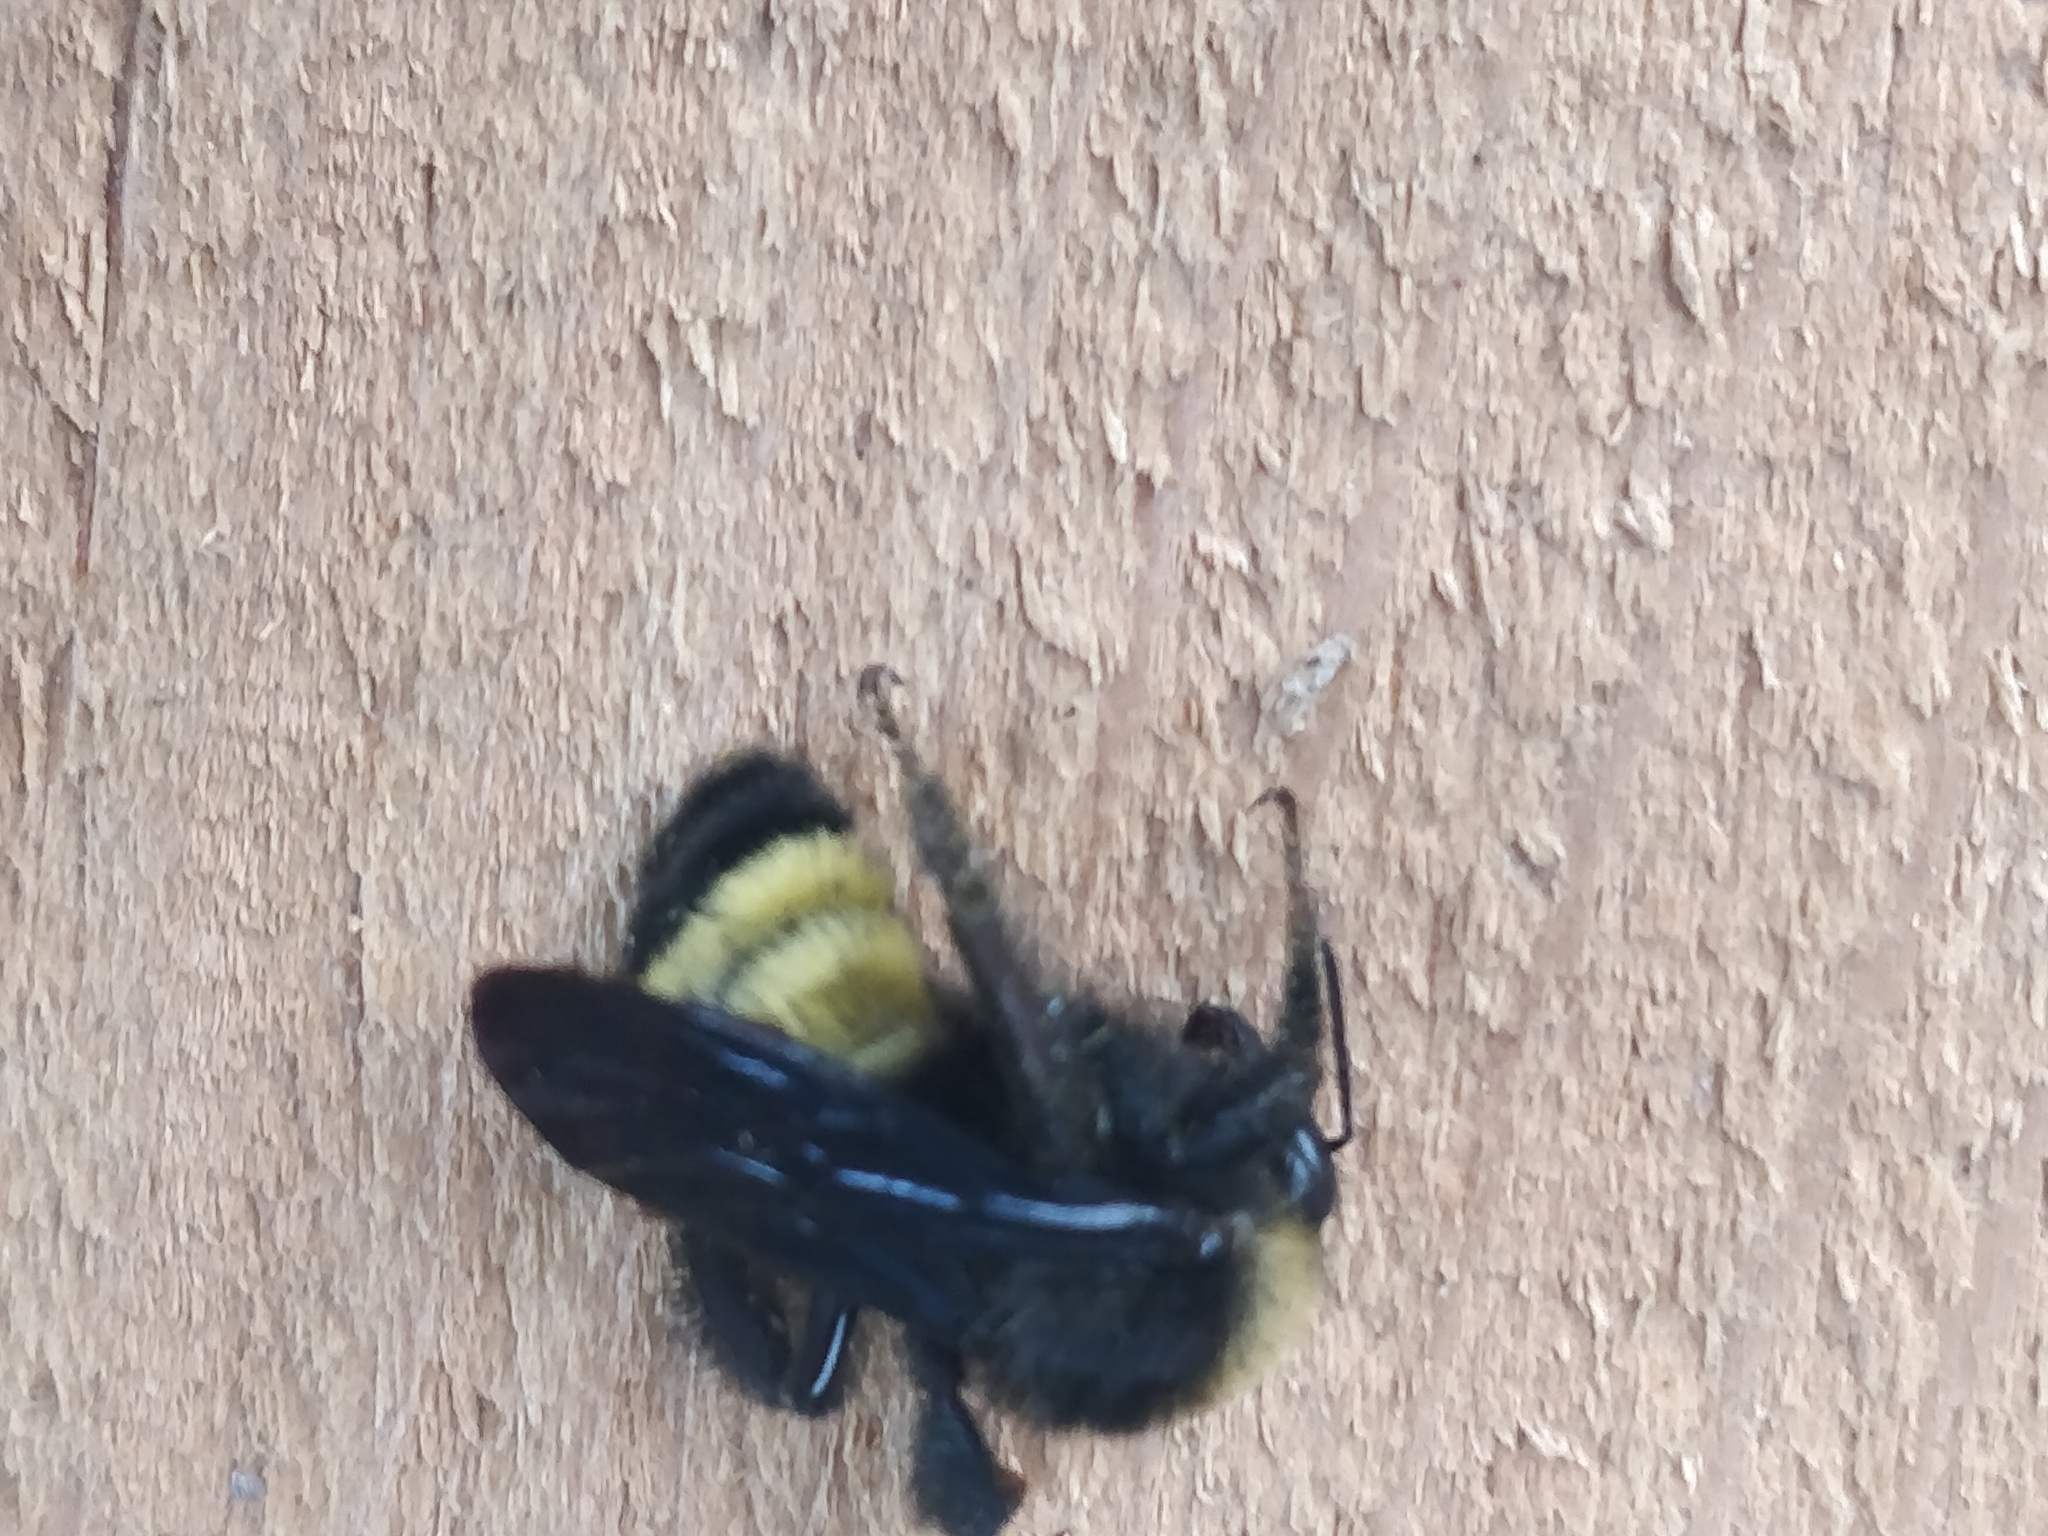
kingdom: Animalia
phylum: Arthropoda
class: Insecta
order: Hymenoptera
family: Apidae
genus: Bombus
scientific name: Bombus pensylvanicus
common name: Bumble bee
